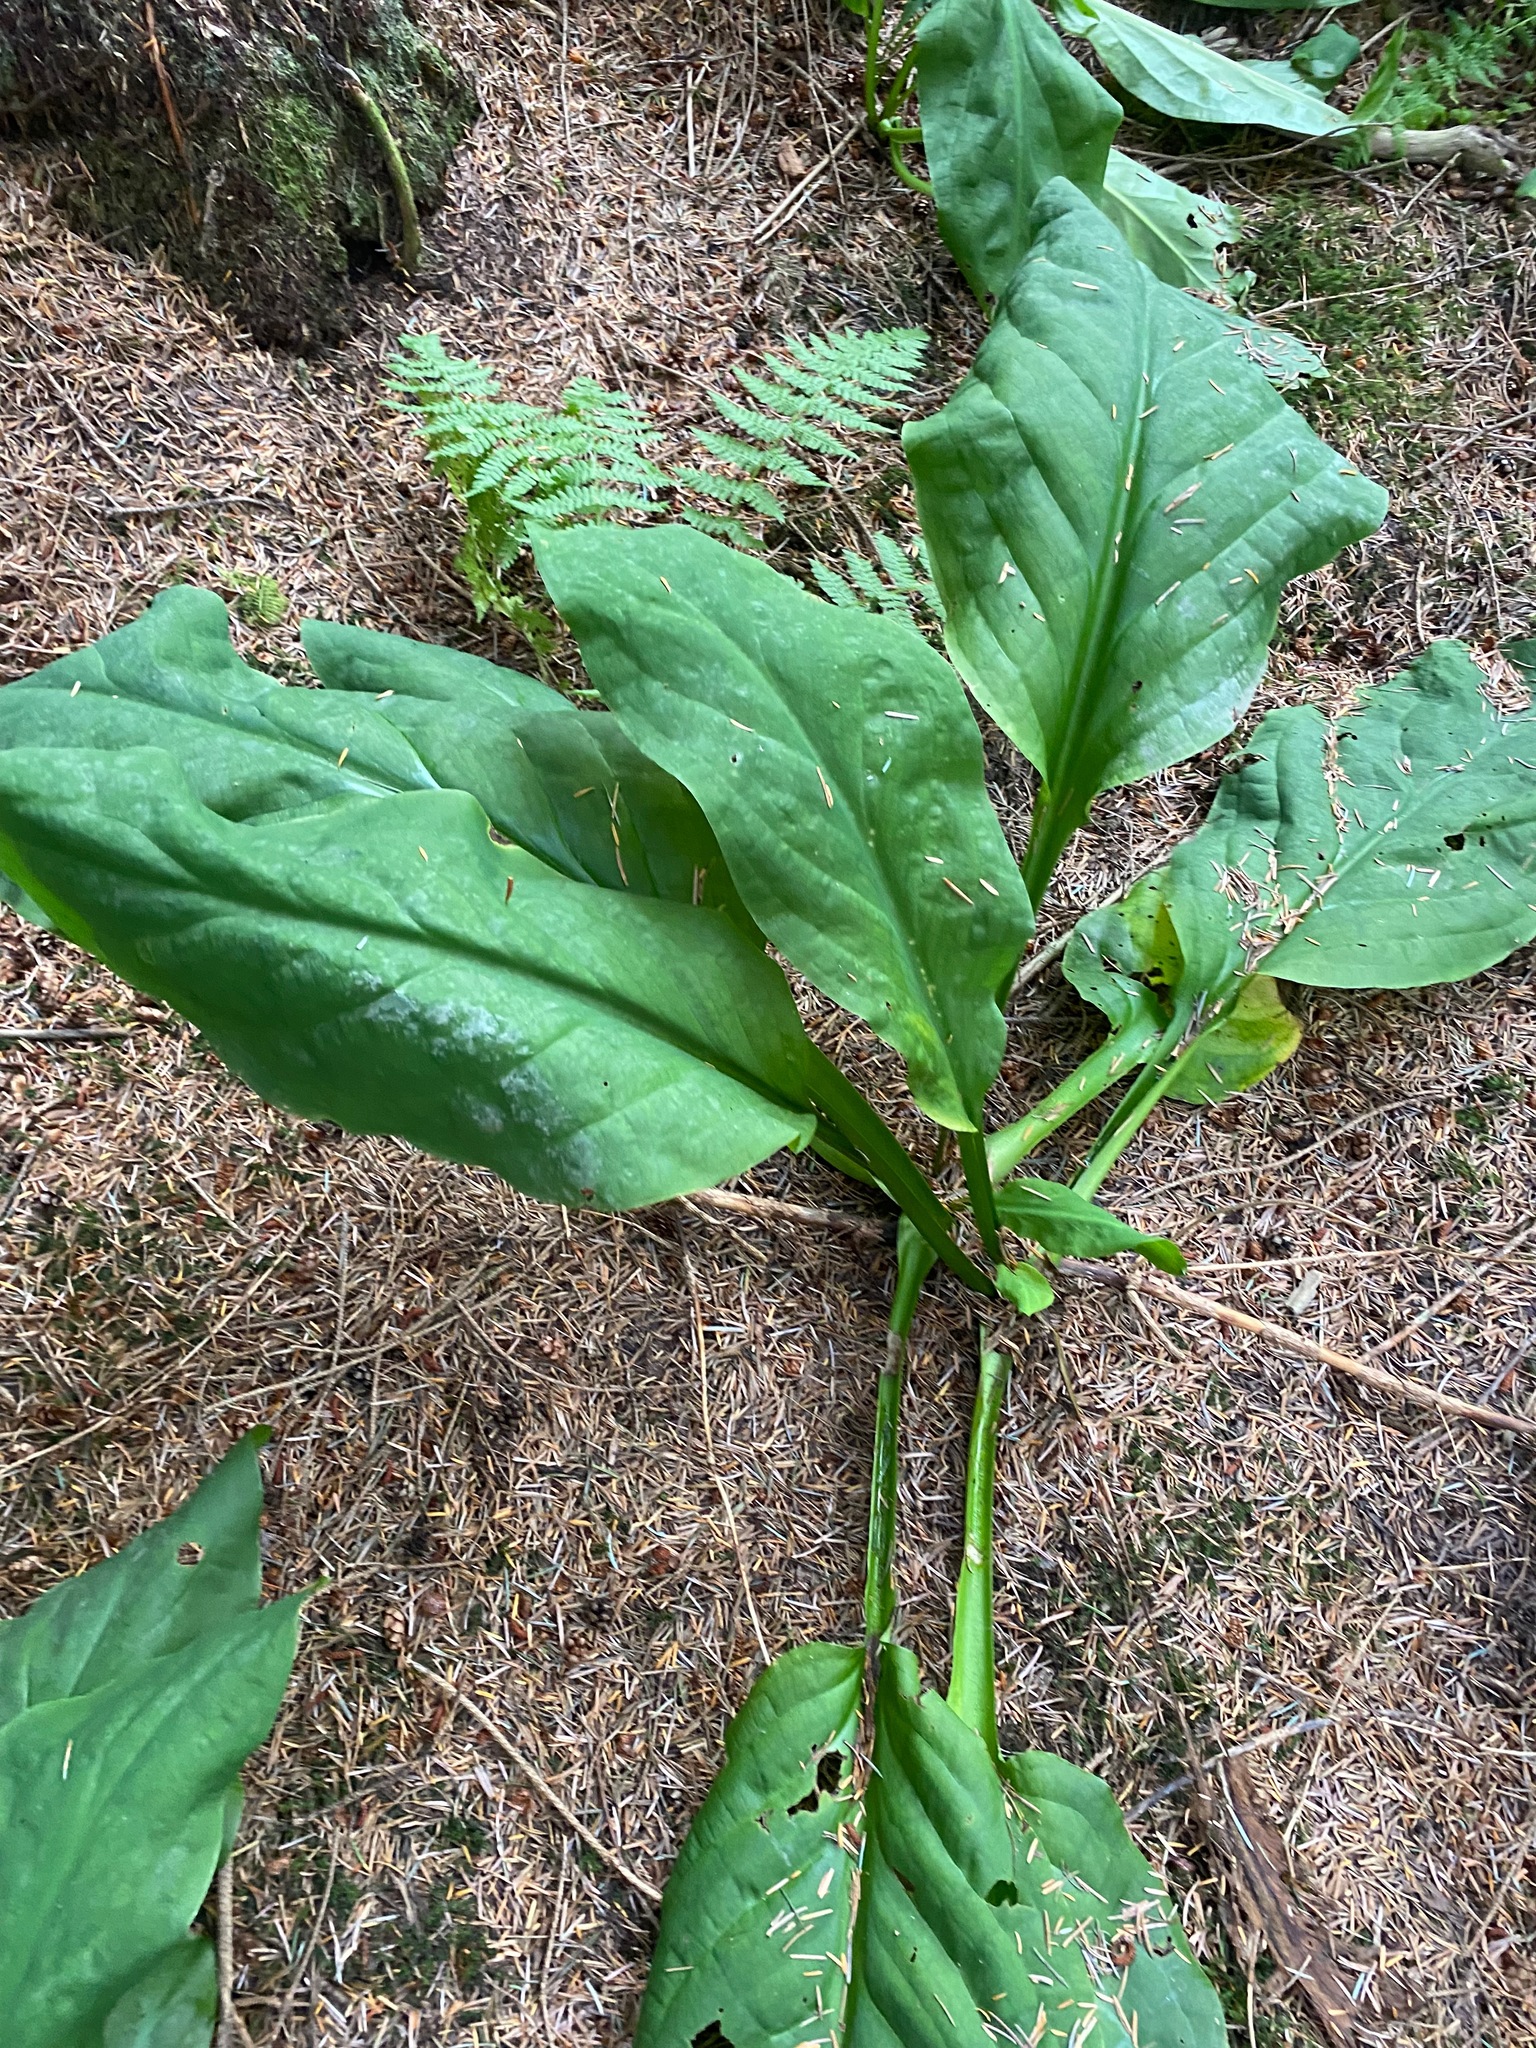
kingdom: Plantae
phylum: Tracheophyta
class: Liliopsida
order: Alismatales
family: Araceae
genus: Lysichiton
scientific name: Lysichiton americanus
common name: American skunk cabbage
